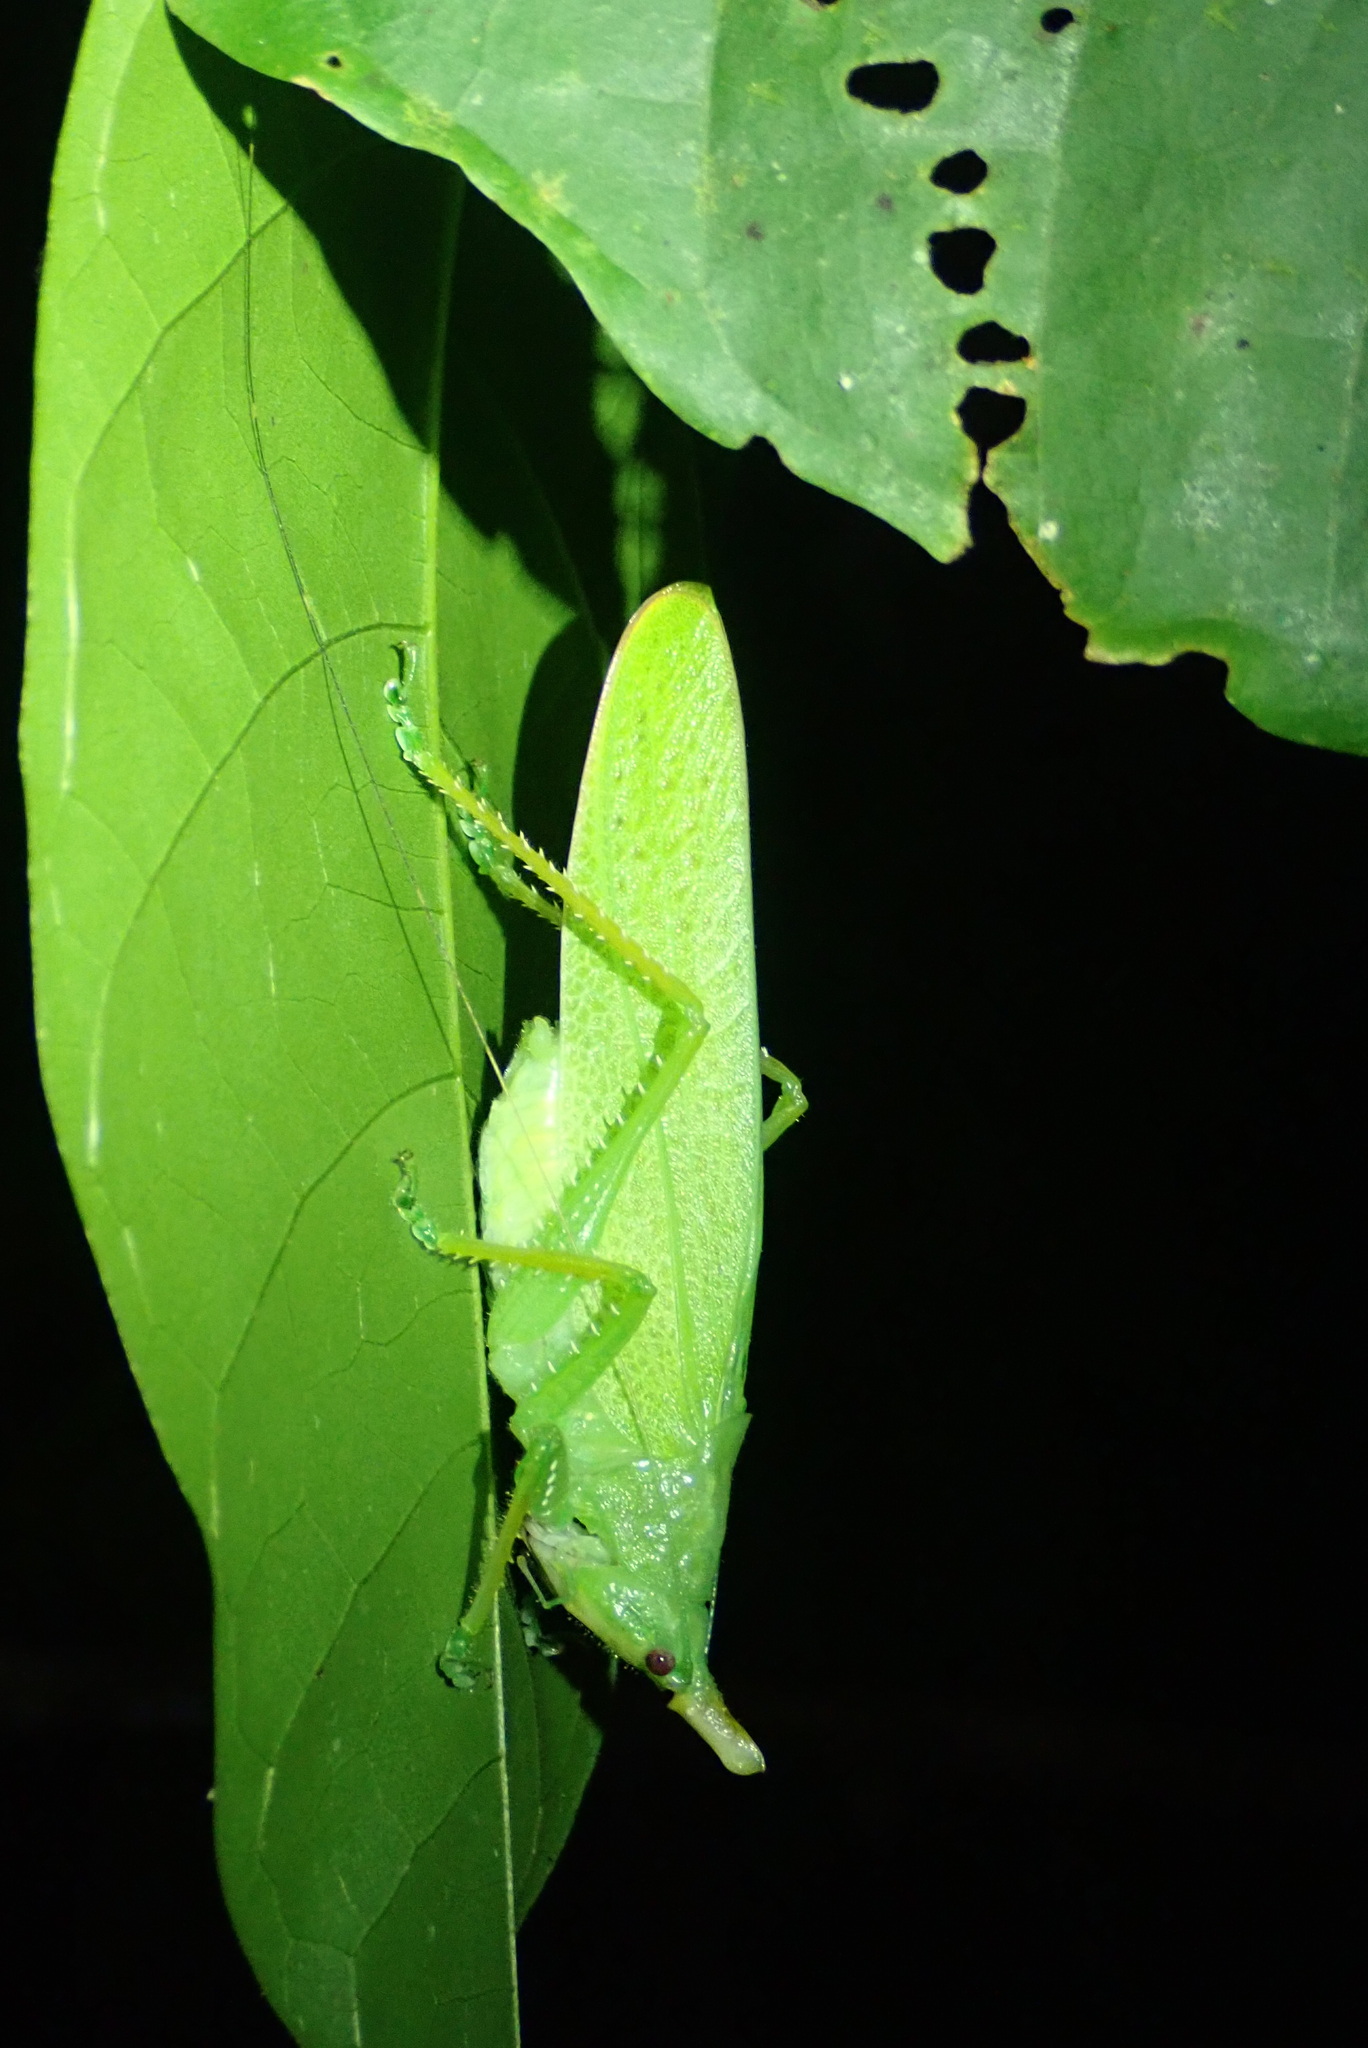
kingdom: Animalia
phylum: Arthropoda
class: Insecta
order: Orthoptera
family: Tettigoniidae
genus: Copiphora
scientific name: Copiphora cultricornis
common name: Yellow-faced spear bearer
